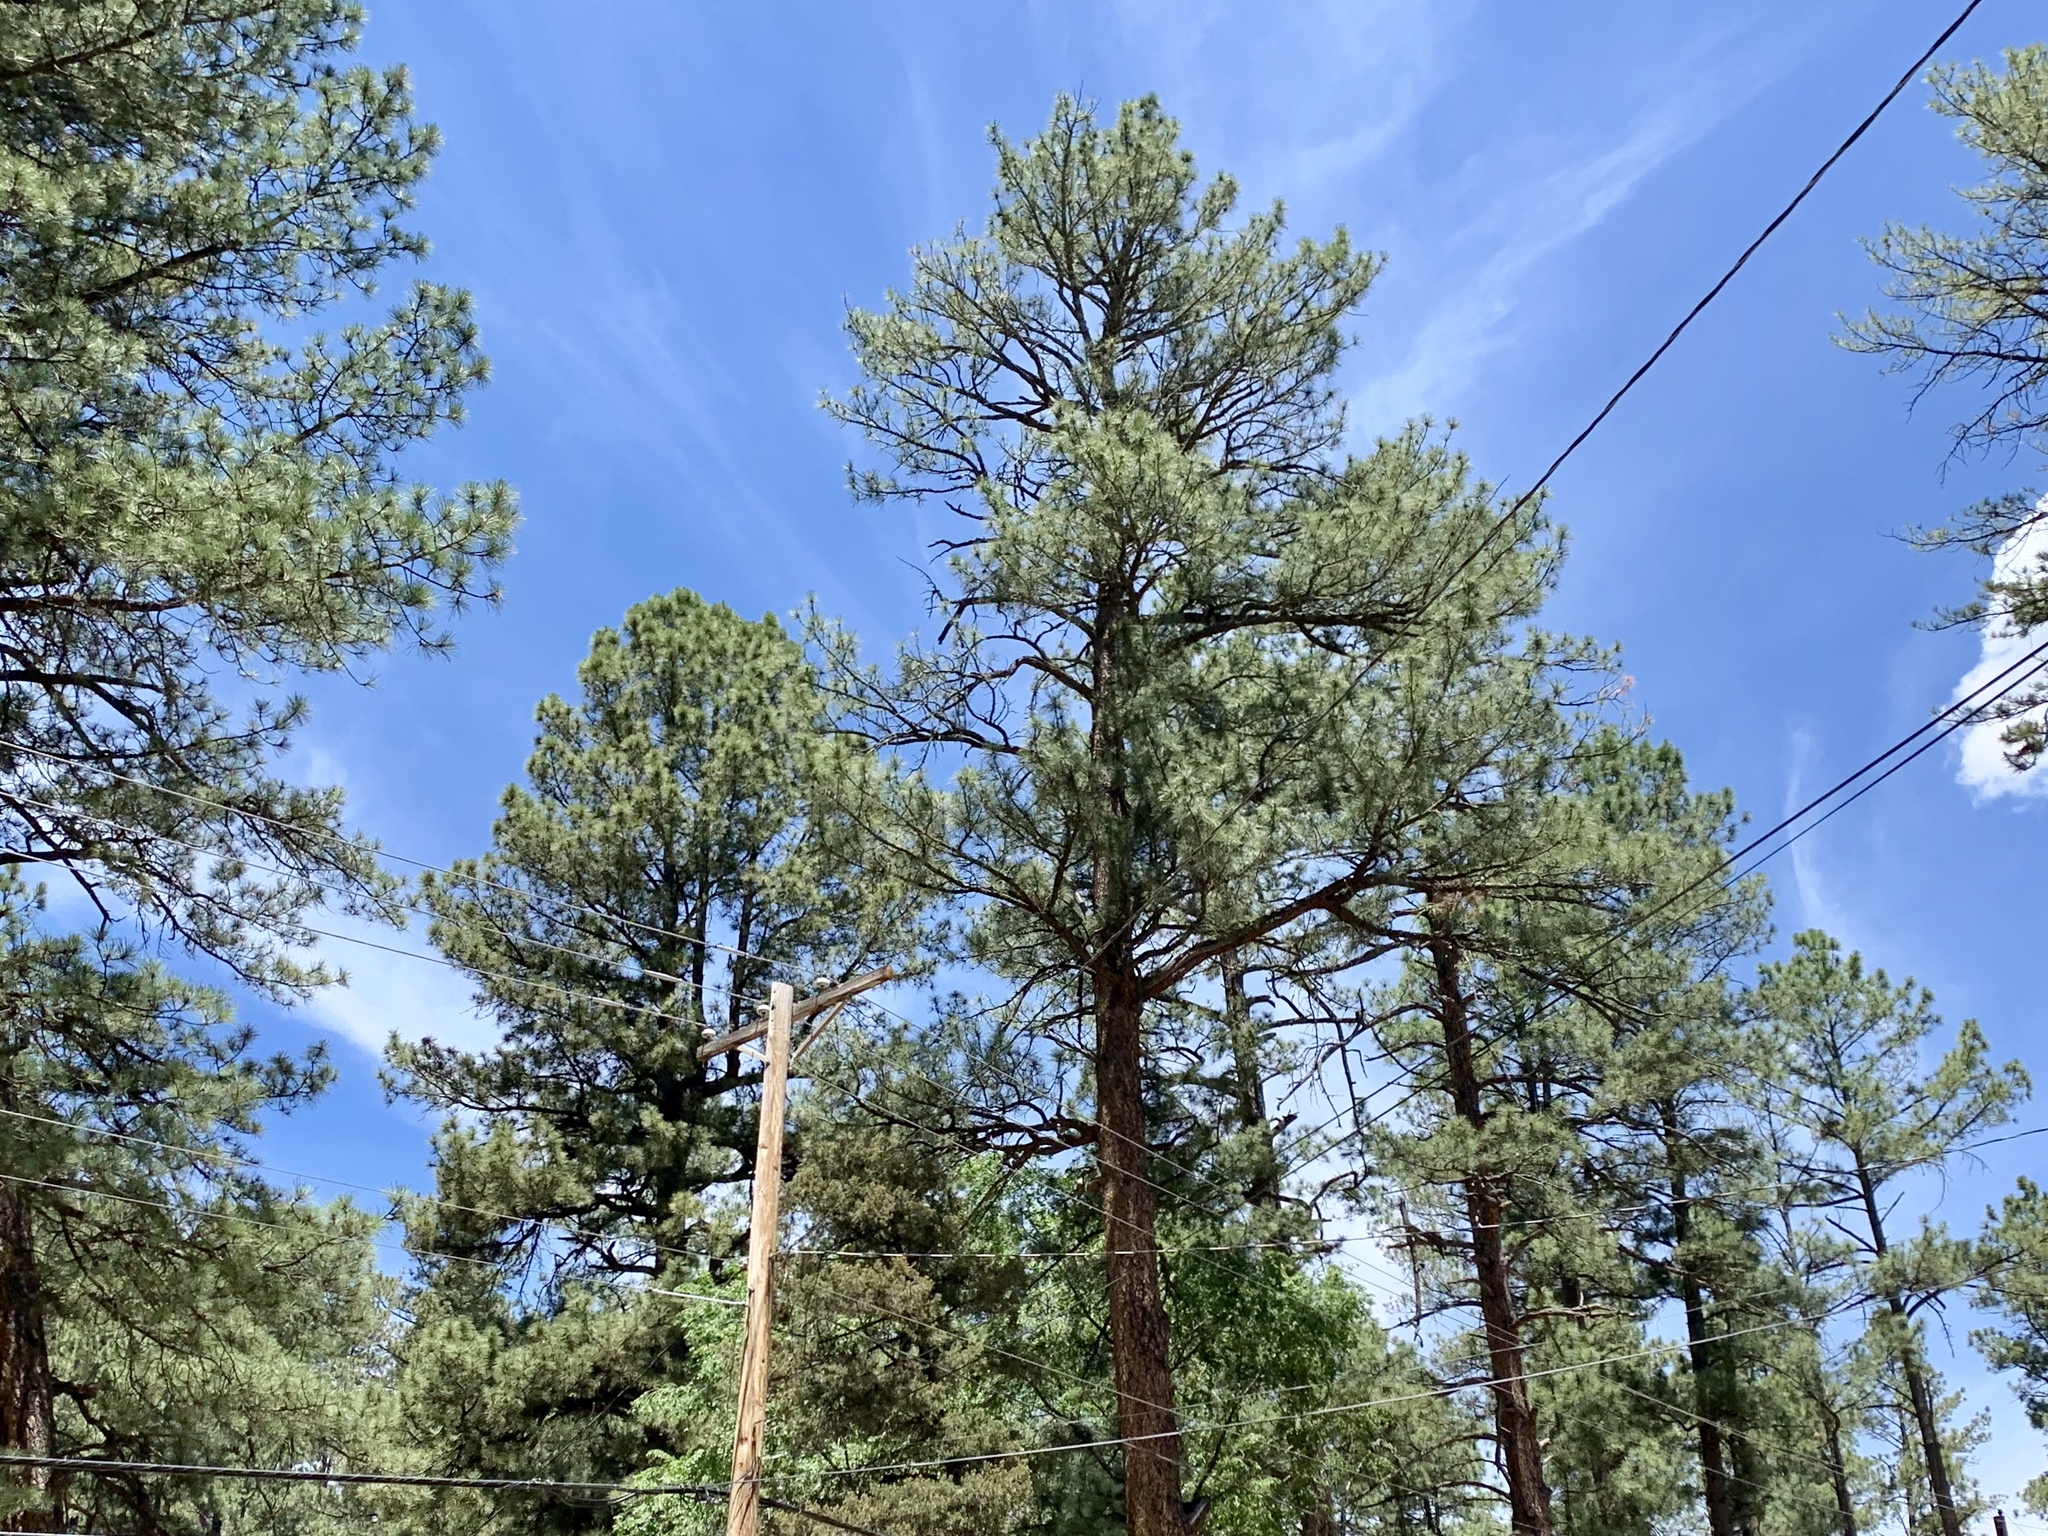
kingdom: Plantae
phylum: Tracheophyta
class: Pinopsida
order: Pinales
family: Pinaceae
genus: Pinus
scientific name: Pinus ponderosa
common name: Western yellow-pine
